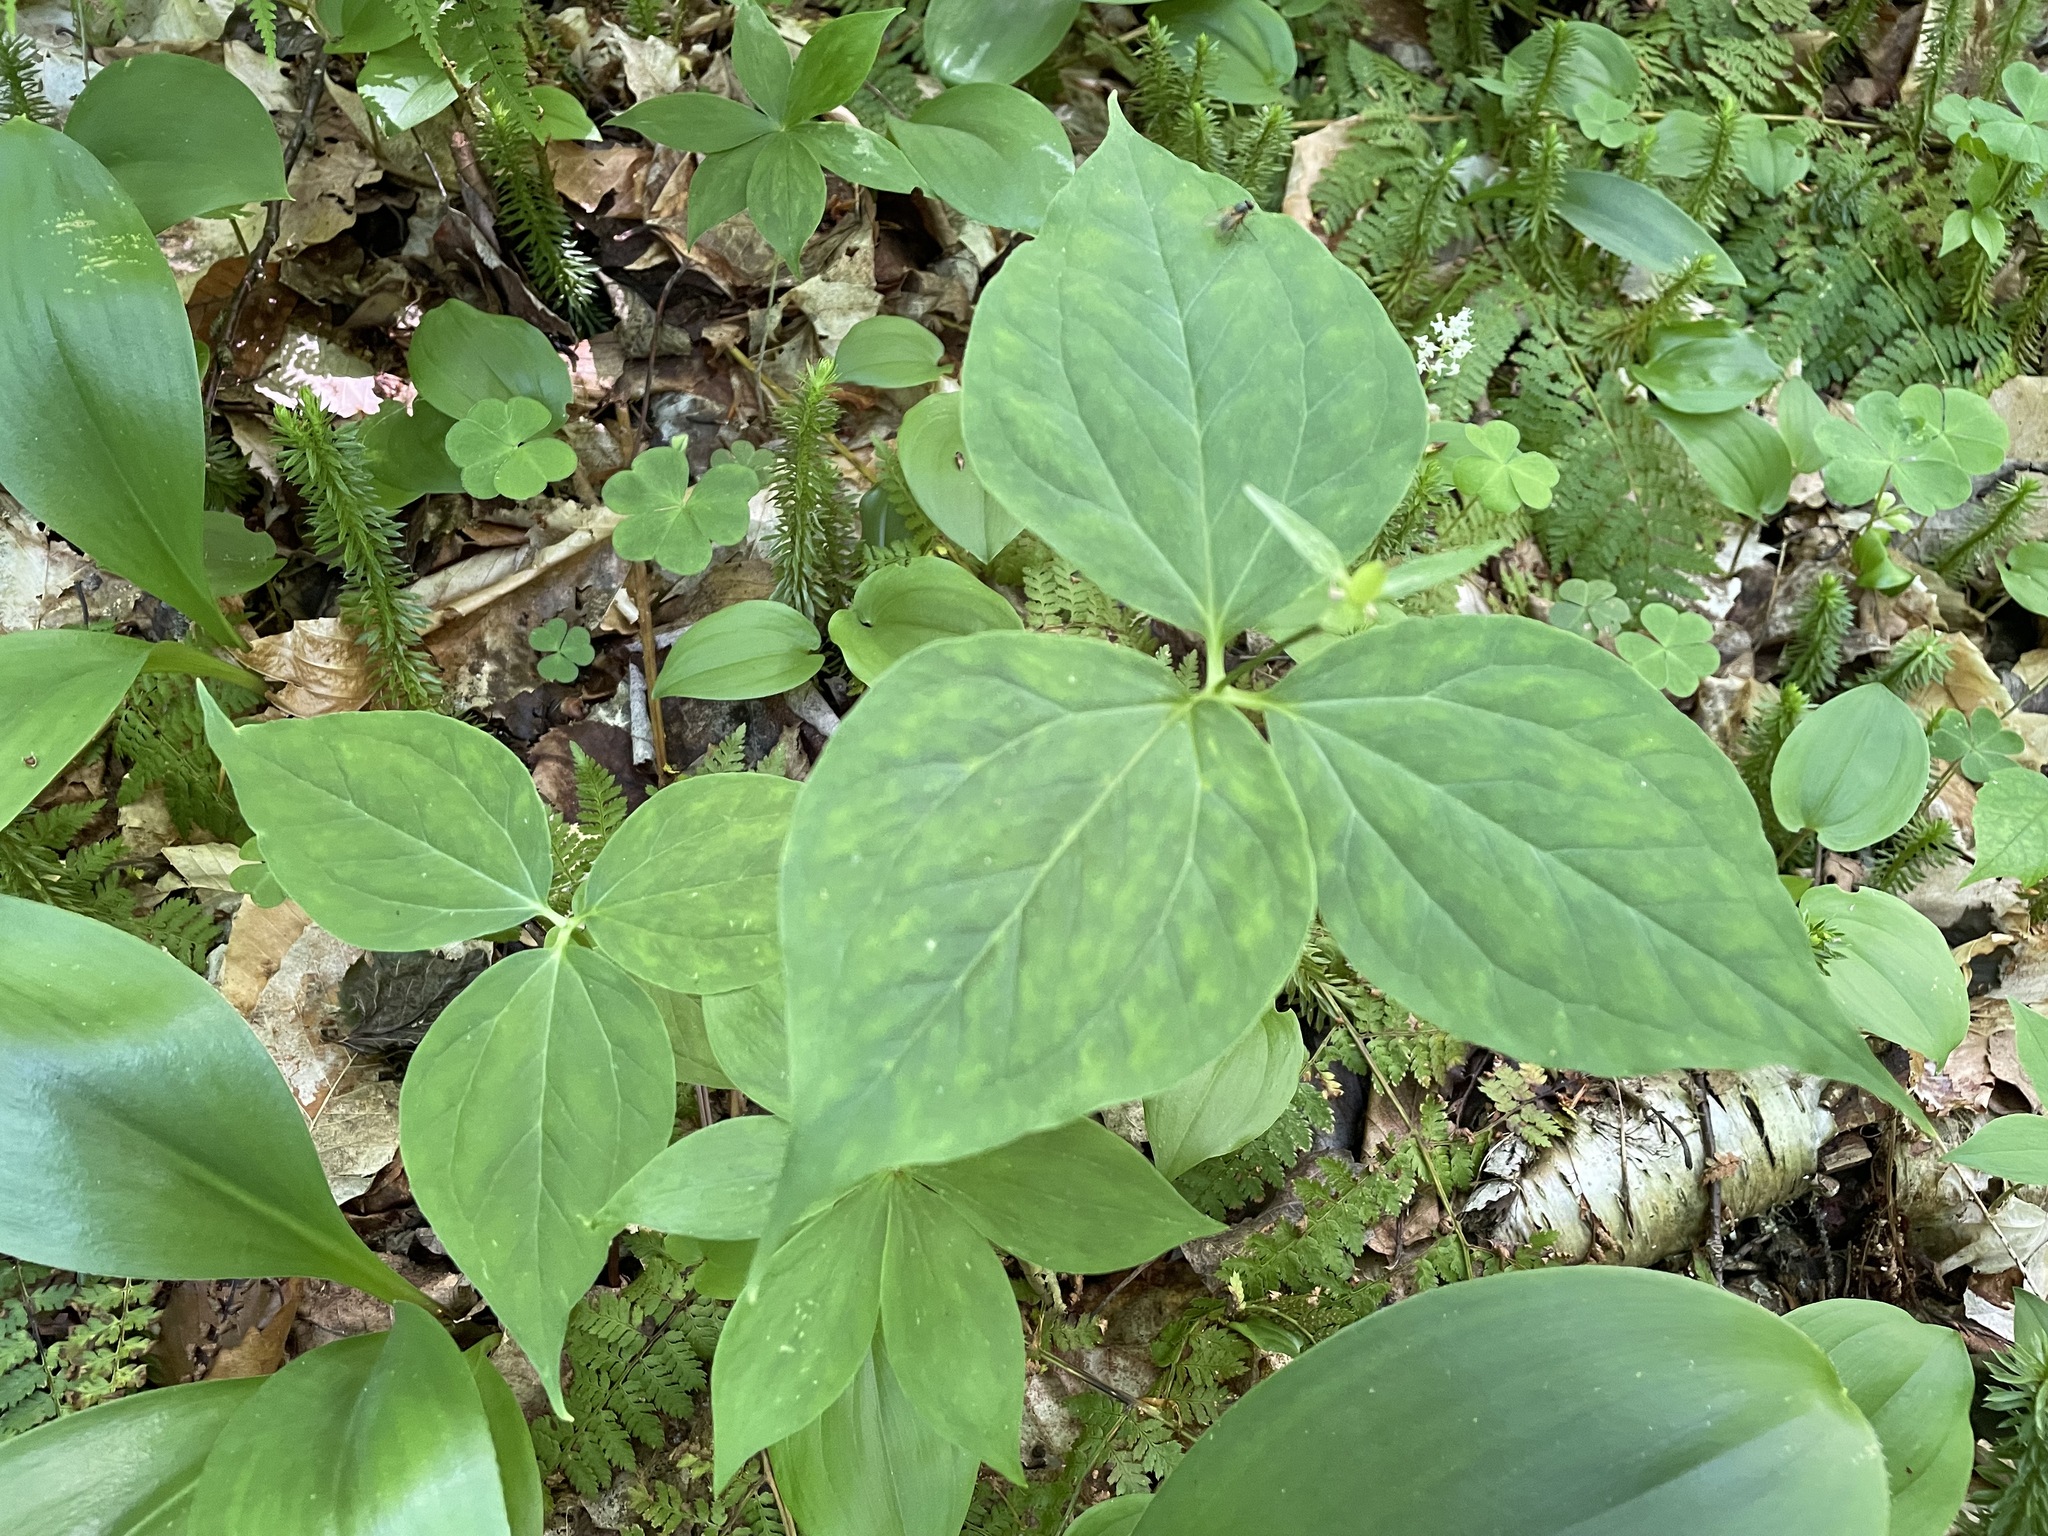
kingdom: Plantae
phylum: Tracheophyta
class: Liliopsida
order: Liliales
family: Melanthiaceae
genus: Trillium
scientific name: Trillium undulatum
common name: Paint trillium
